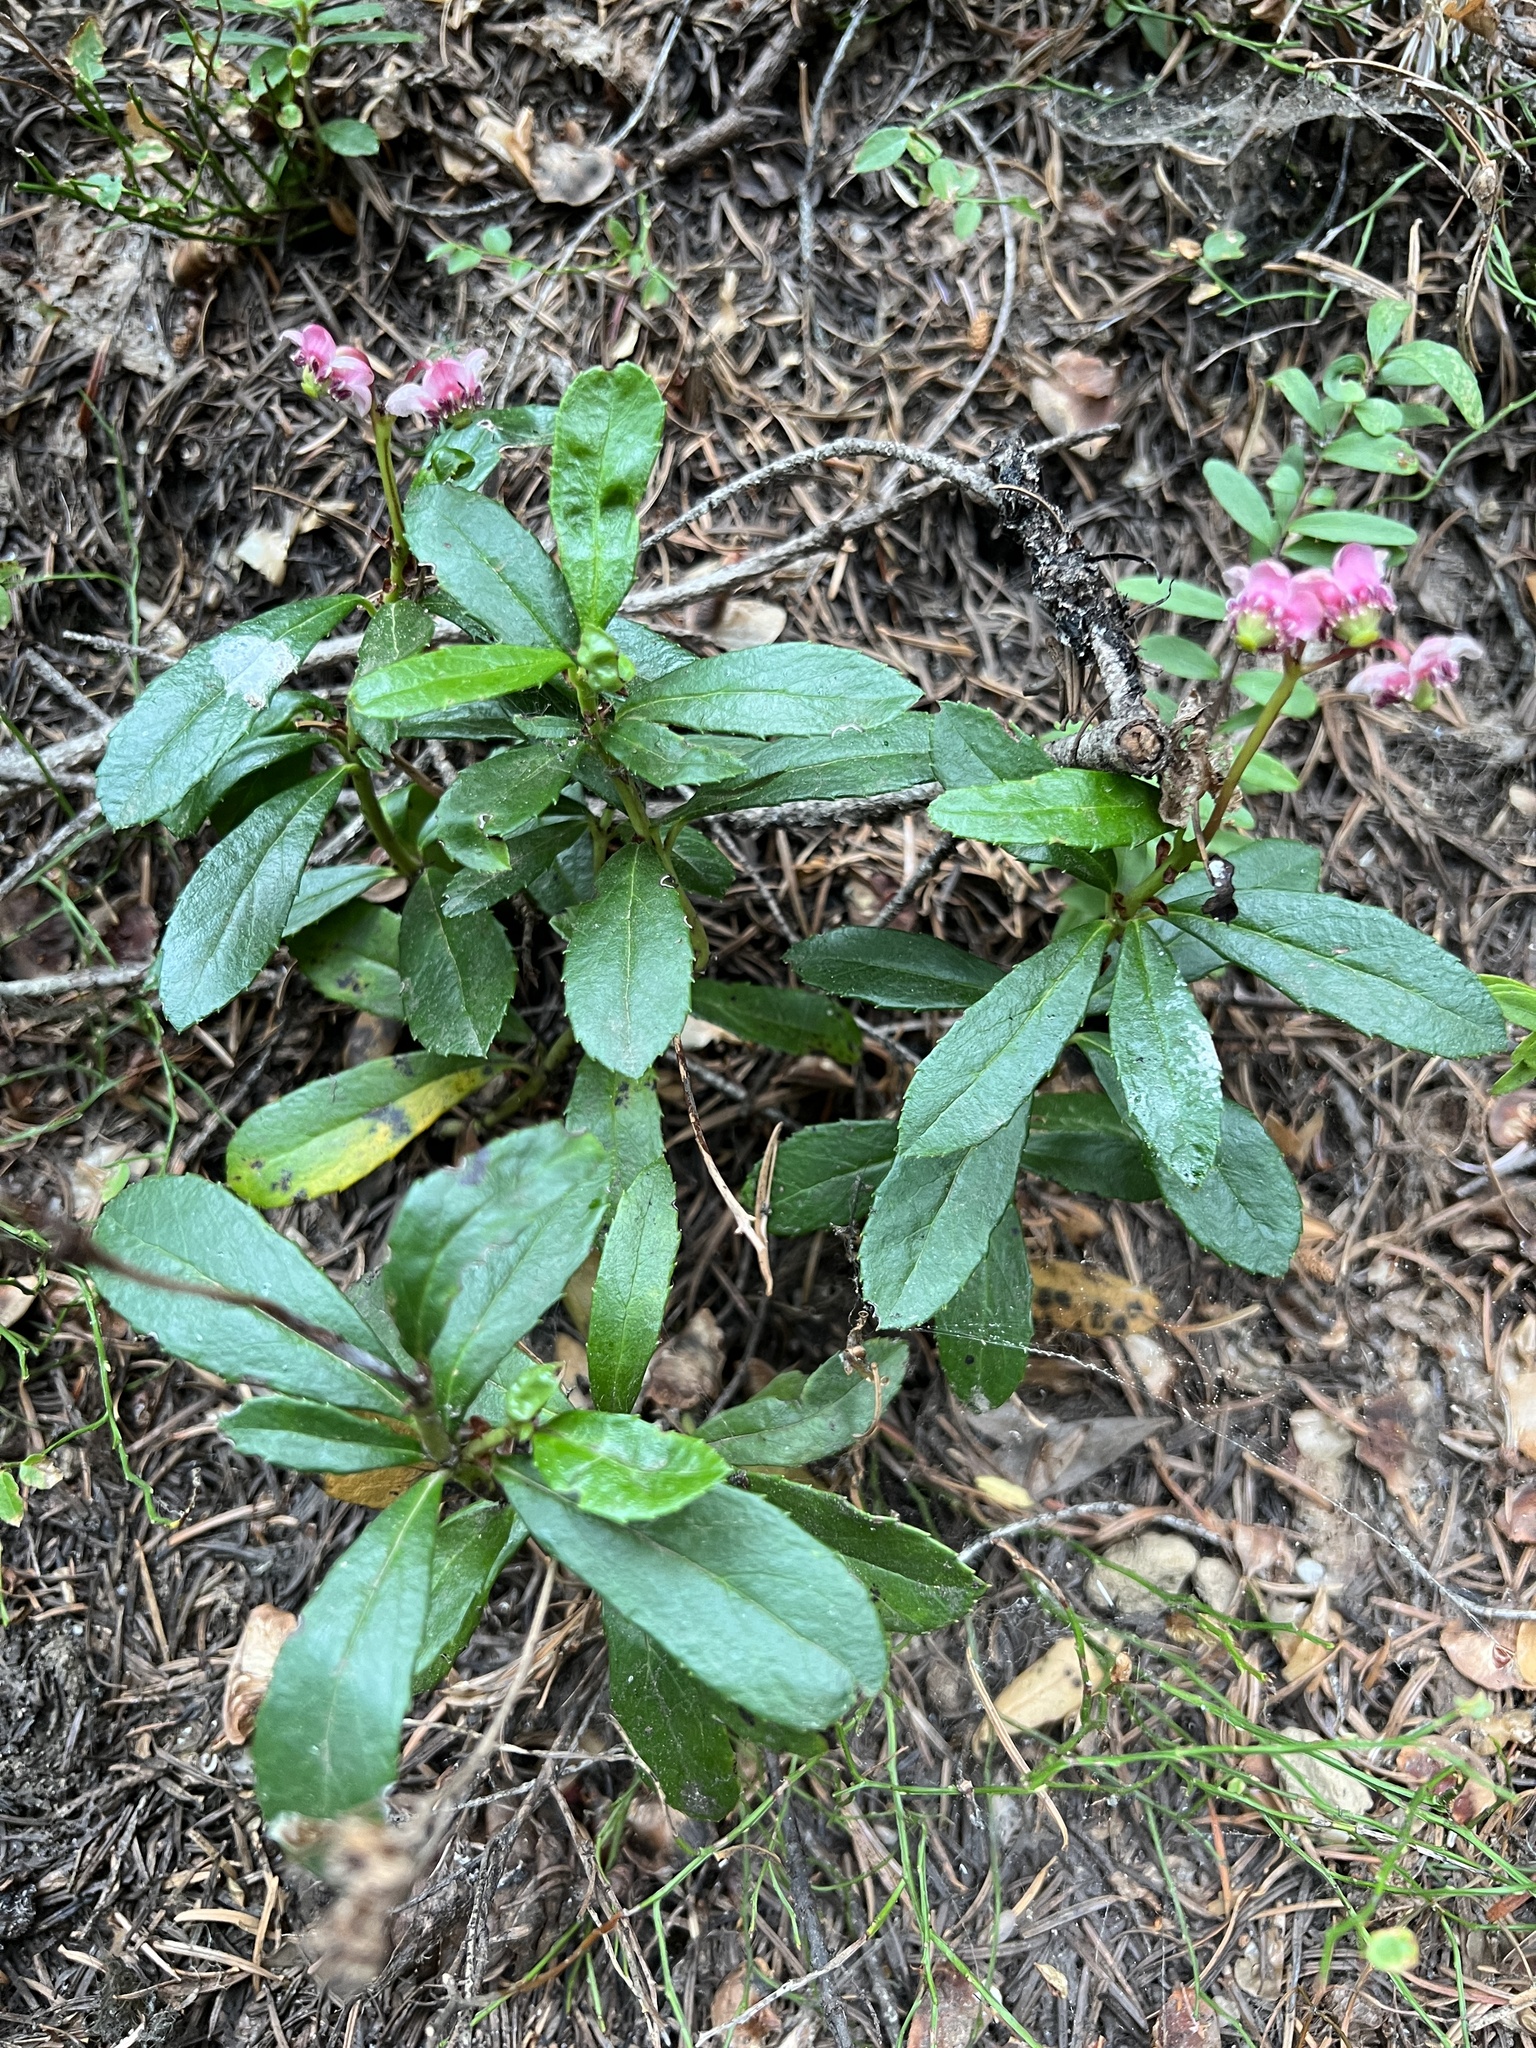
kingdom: Plantae
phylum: Tracheophyta
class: Magnoliopsida
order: Ericales
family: Ericaceae
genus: Chimaphila
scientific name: Chimaphila umbellata
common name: Pipsissewa
